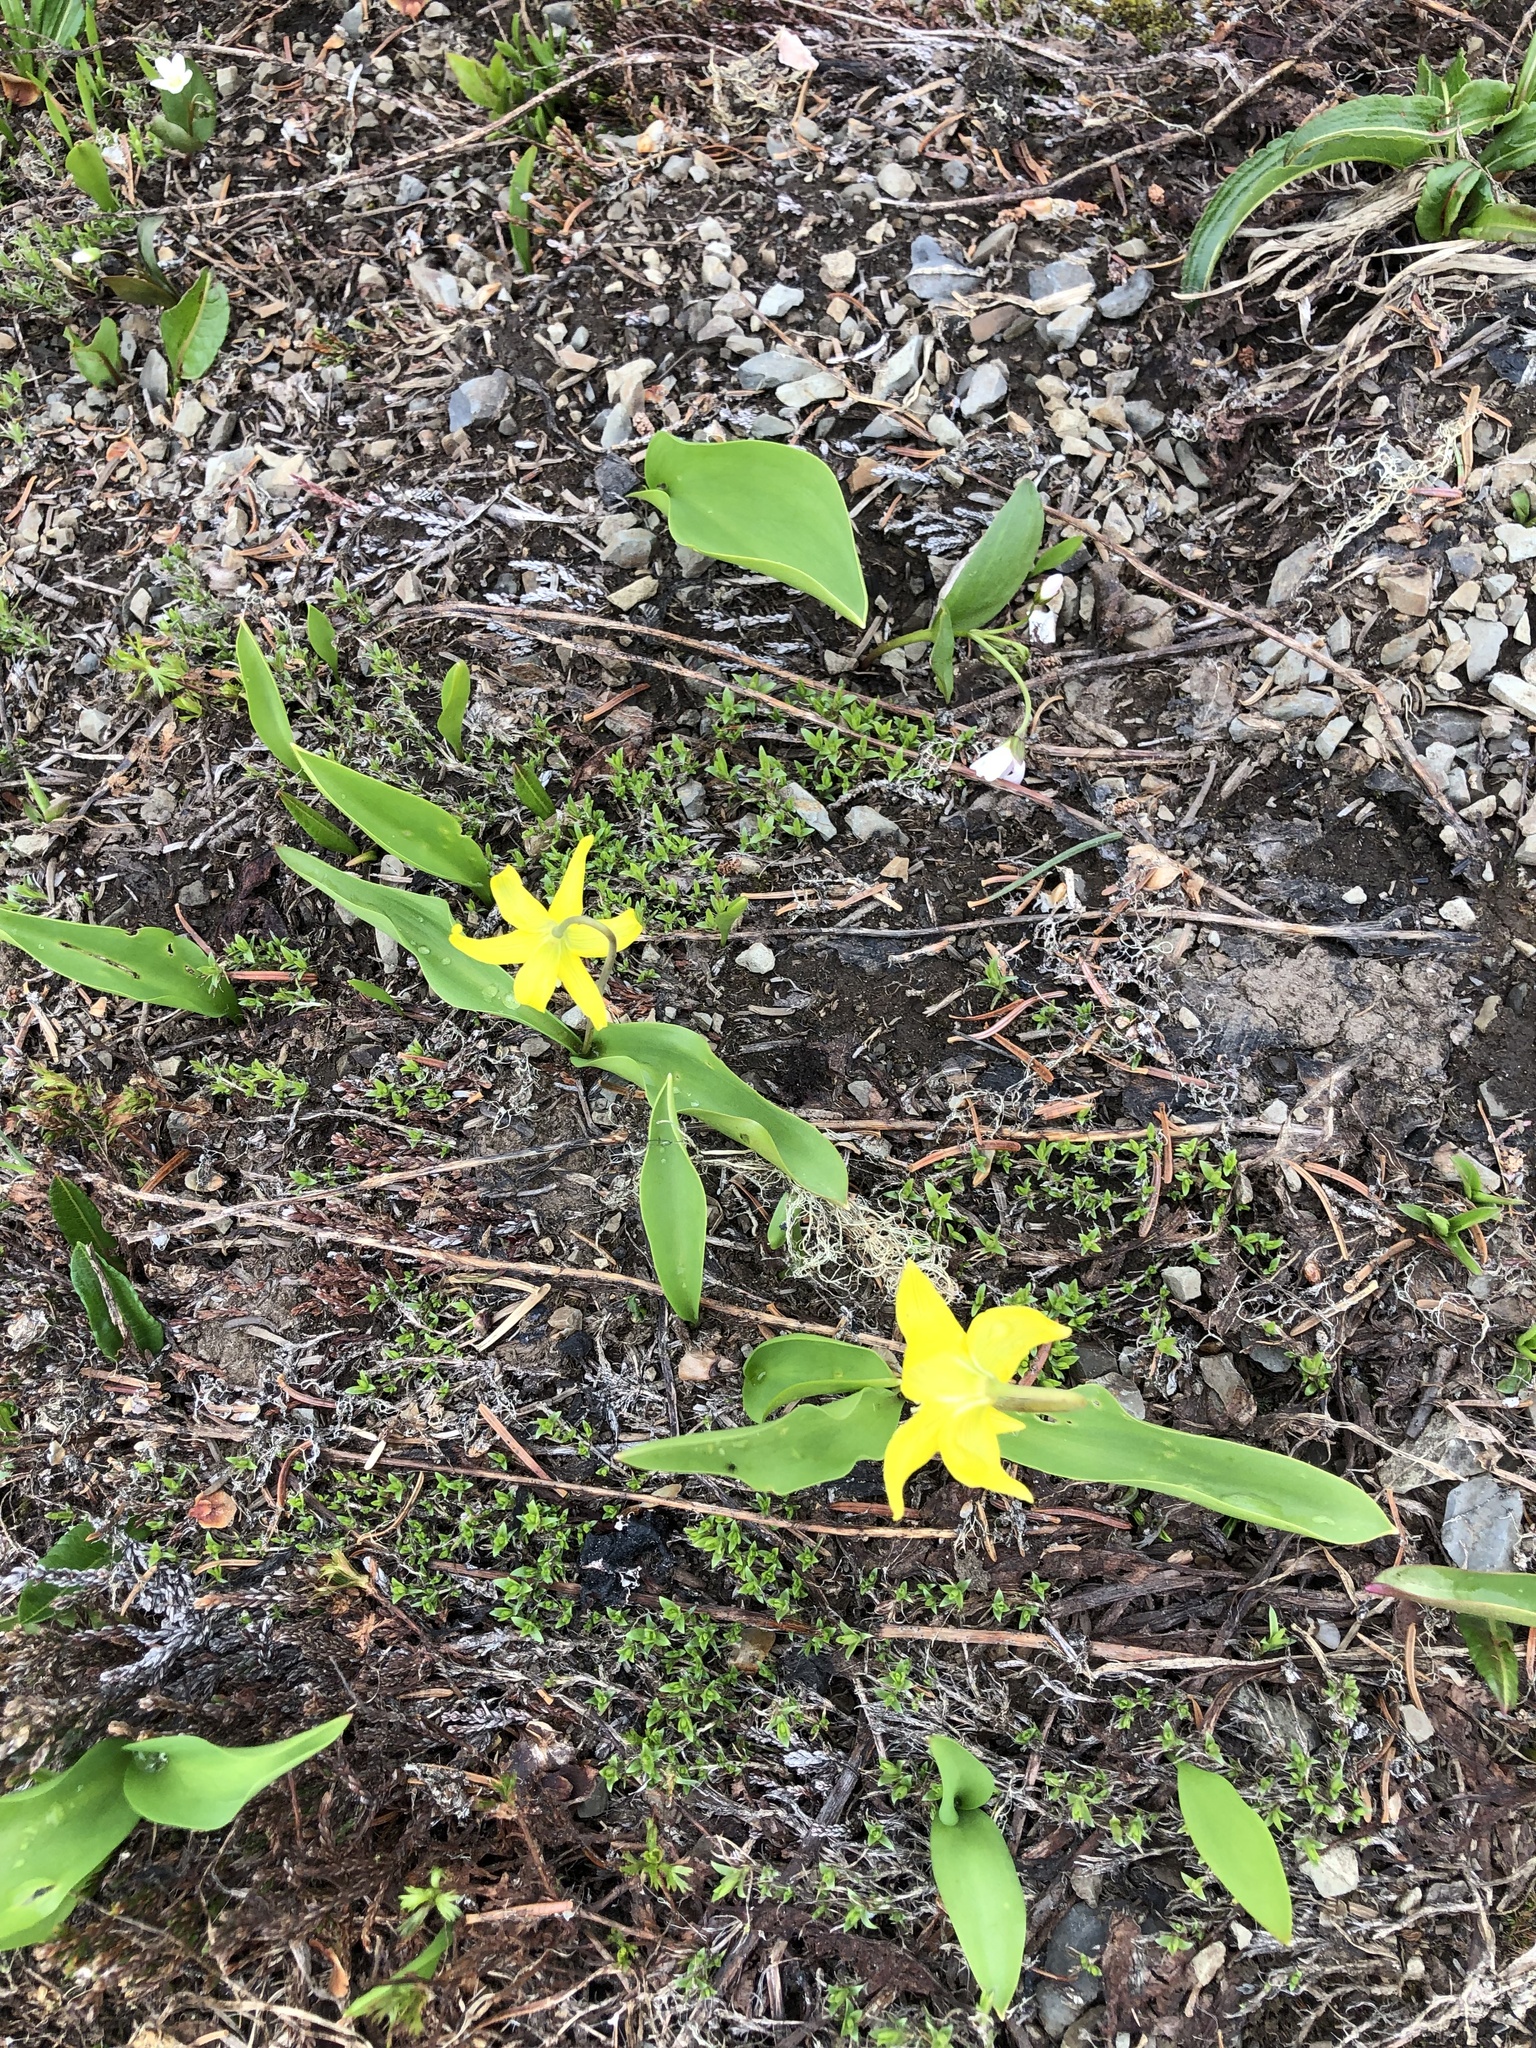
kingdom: Plantae
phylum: Tracheophyta
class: Liliopsida
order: Liliales
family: Liliaceae
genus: Erythronium
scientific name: Erythronium grandiflorum
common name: Avalanche-lily
